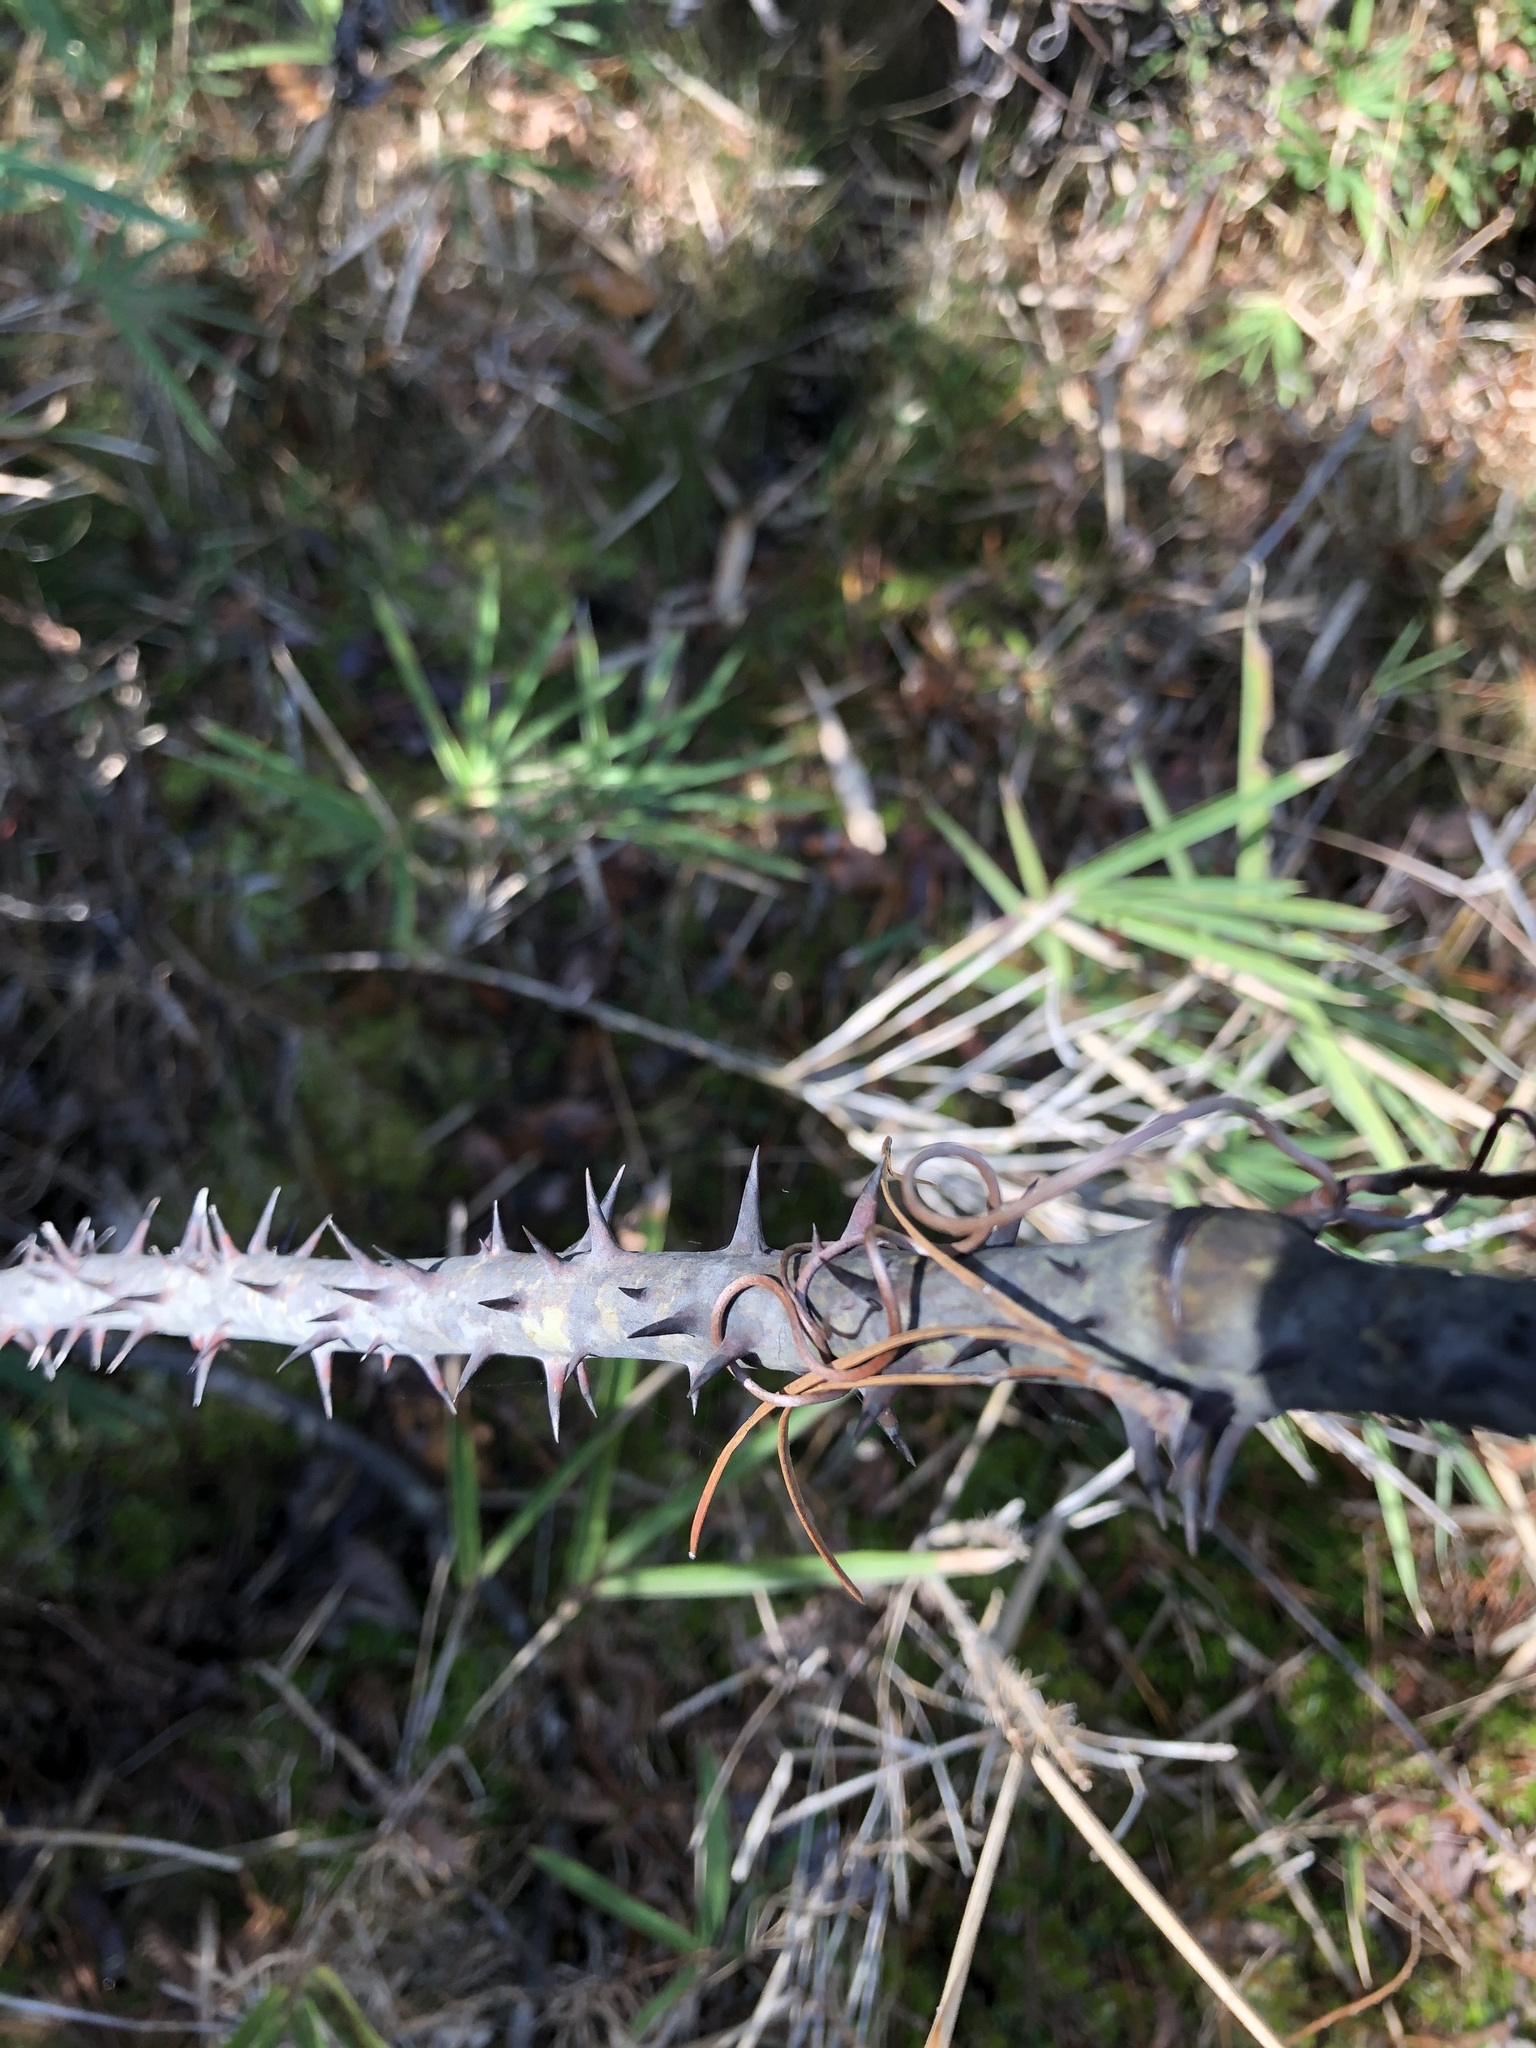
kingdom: Plantae
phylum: Tracheophyta
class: Liliopsida
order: Liliales
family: Smilacaceae
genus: Smilax
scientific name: Smilax laurifolia
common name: Bamboovine
